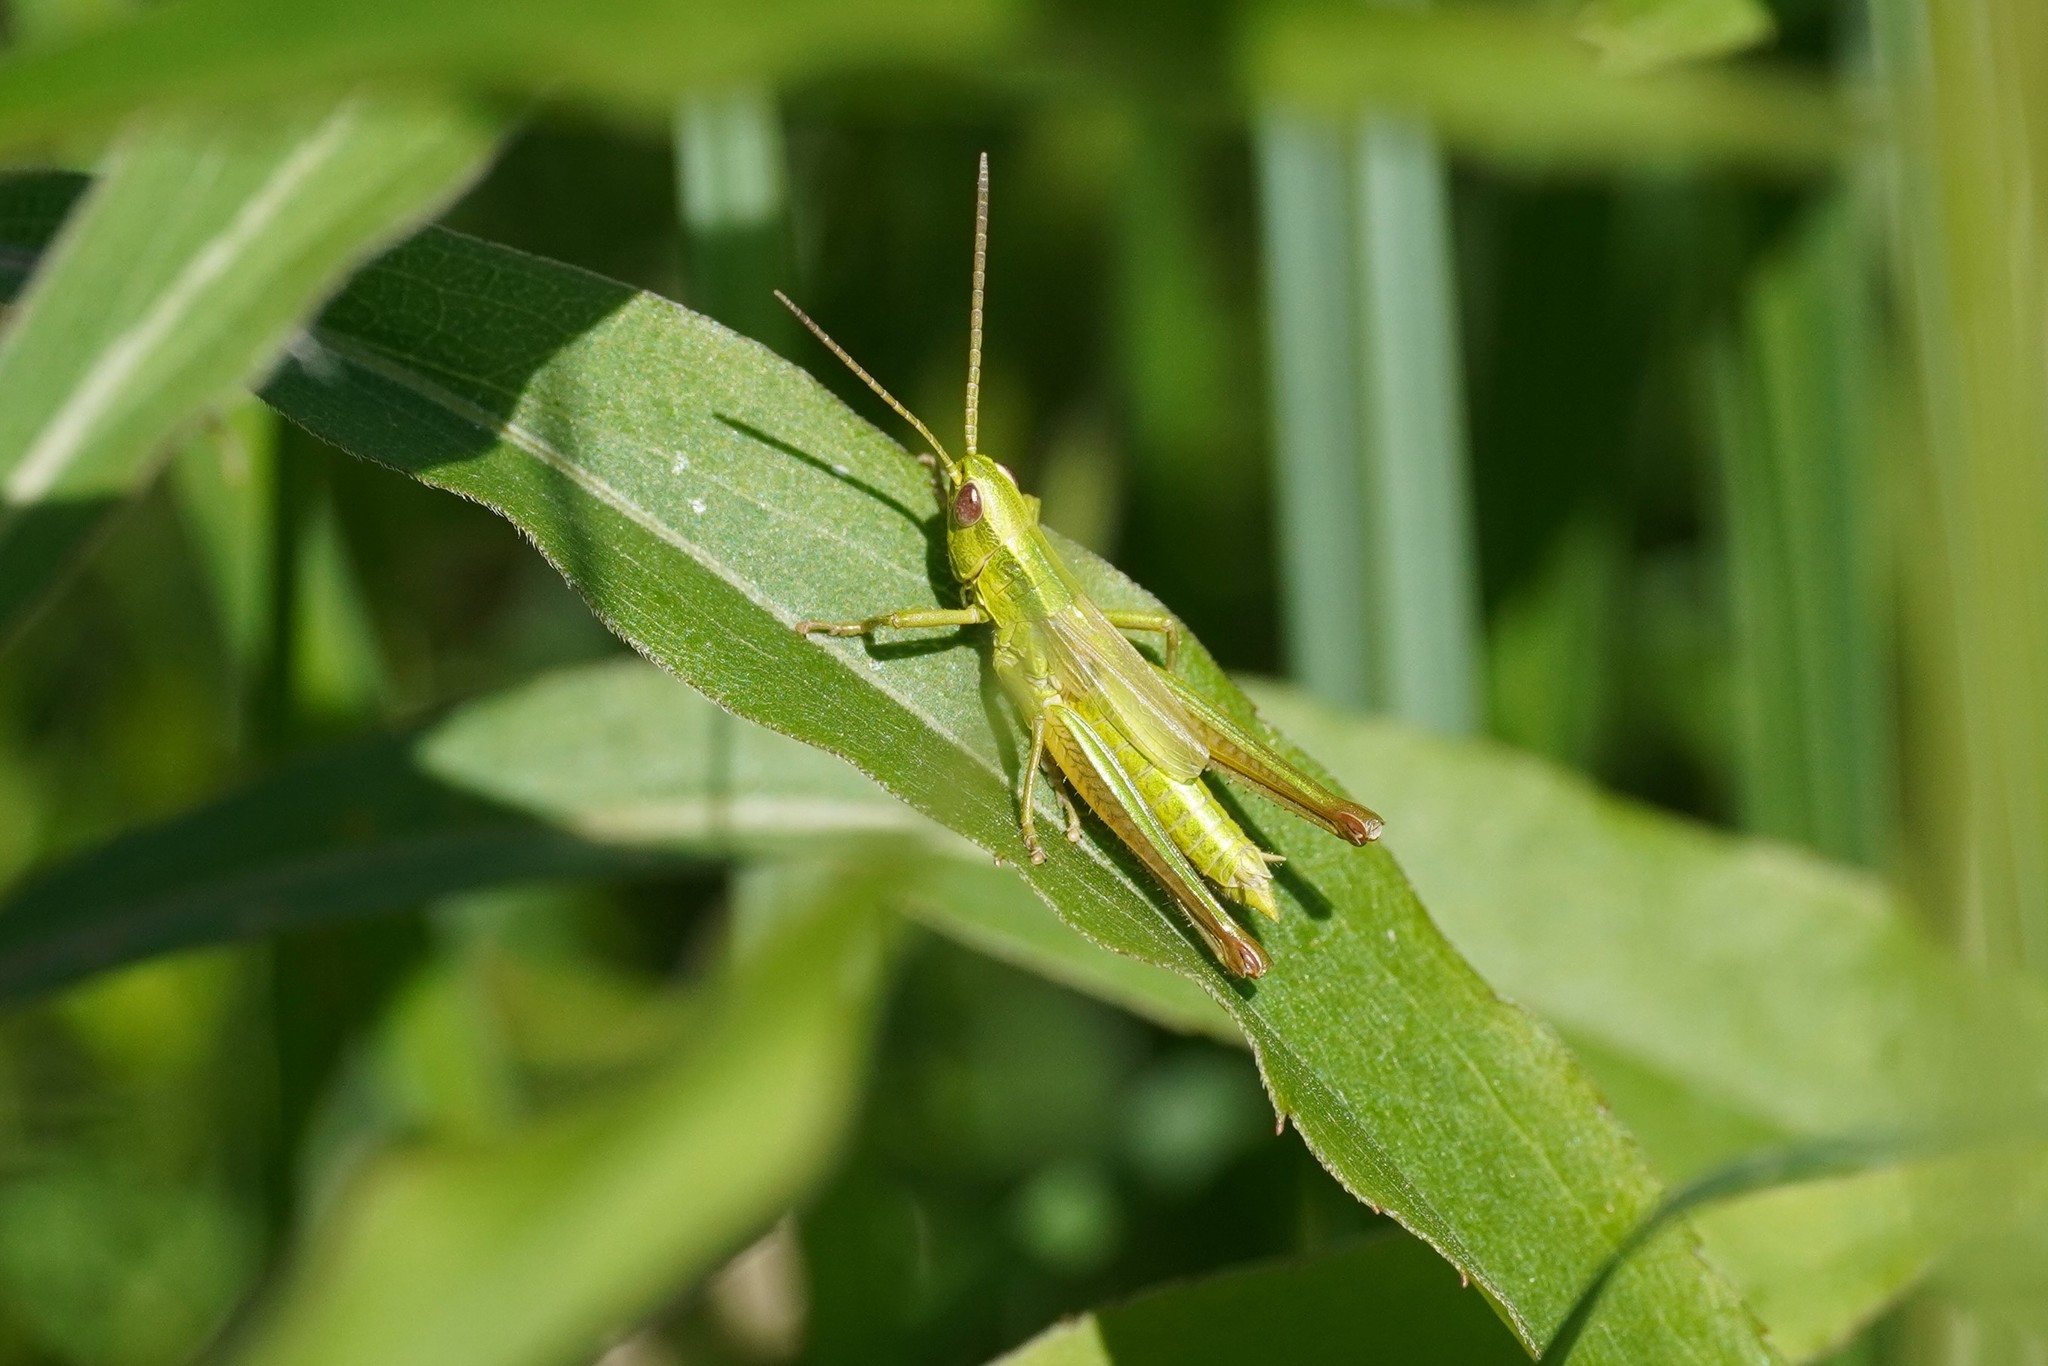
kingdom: Animalia
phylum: Arthropoda
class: Insecta
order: Orthoptera
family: Acrididae
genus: Euthystira
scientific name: Euthystira brachyptera
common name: Small gold grasshopper
